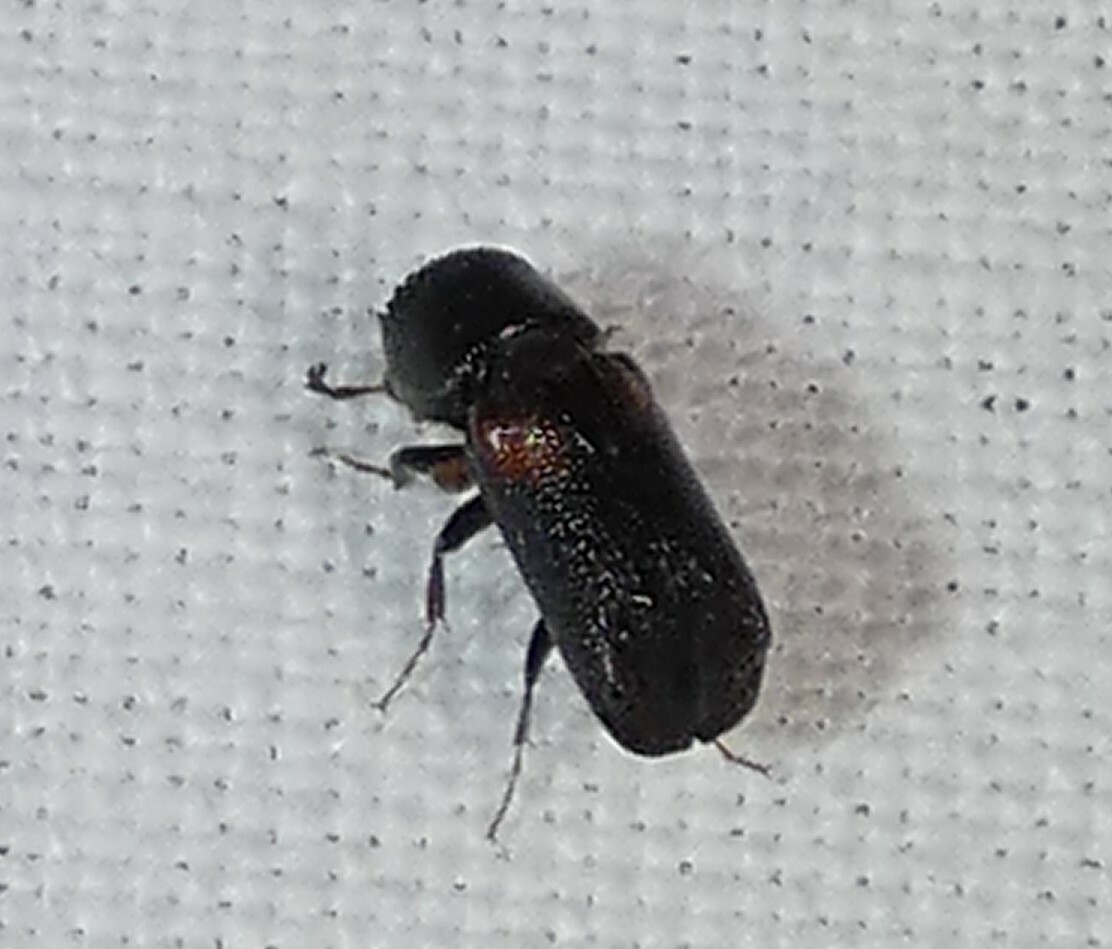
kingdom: Animalia
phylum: Arthropoda
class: Insecta
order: Coleoptera
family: Bostrichidae
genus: Xylobiops
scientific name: Xylobiops basilaris
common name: Red-shouldered bostrichid
